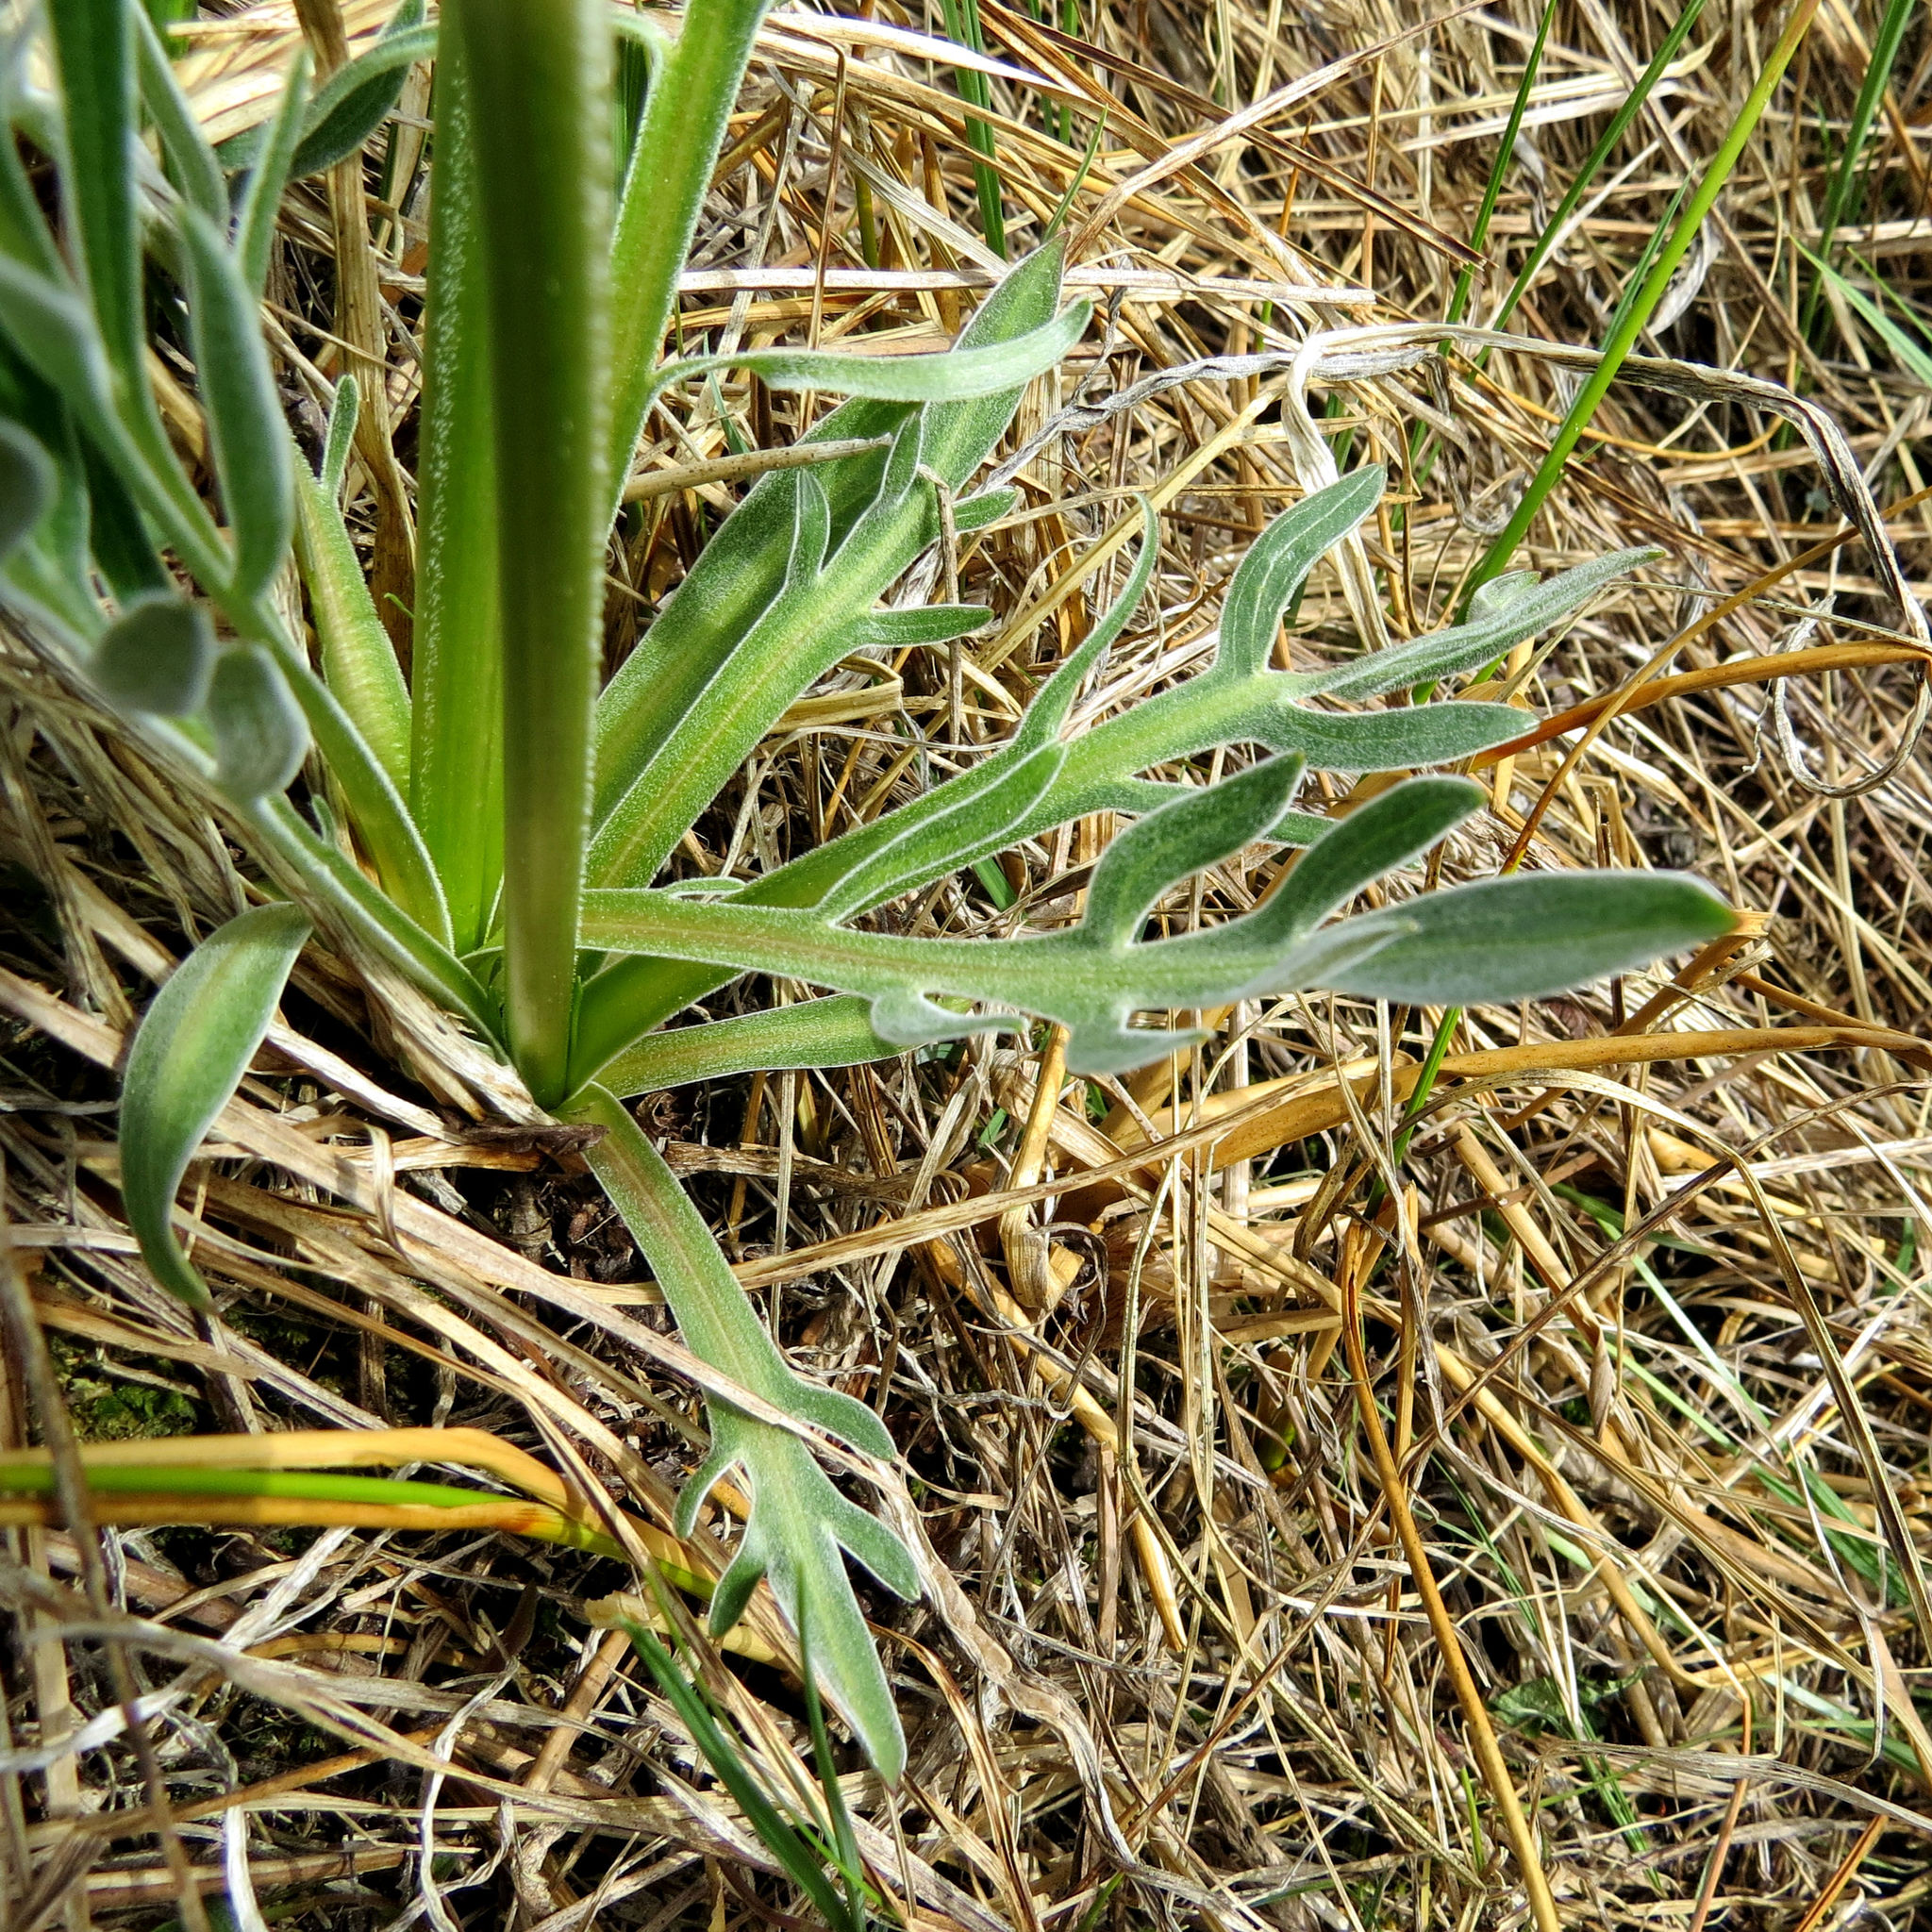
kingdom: Plantae
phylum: Tracheophyta
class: Magnoliopsida
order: Dipsacales
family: Caprifoliaceae
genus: Valeriana
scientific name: Valeriana edulis
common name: Taproot valerian
